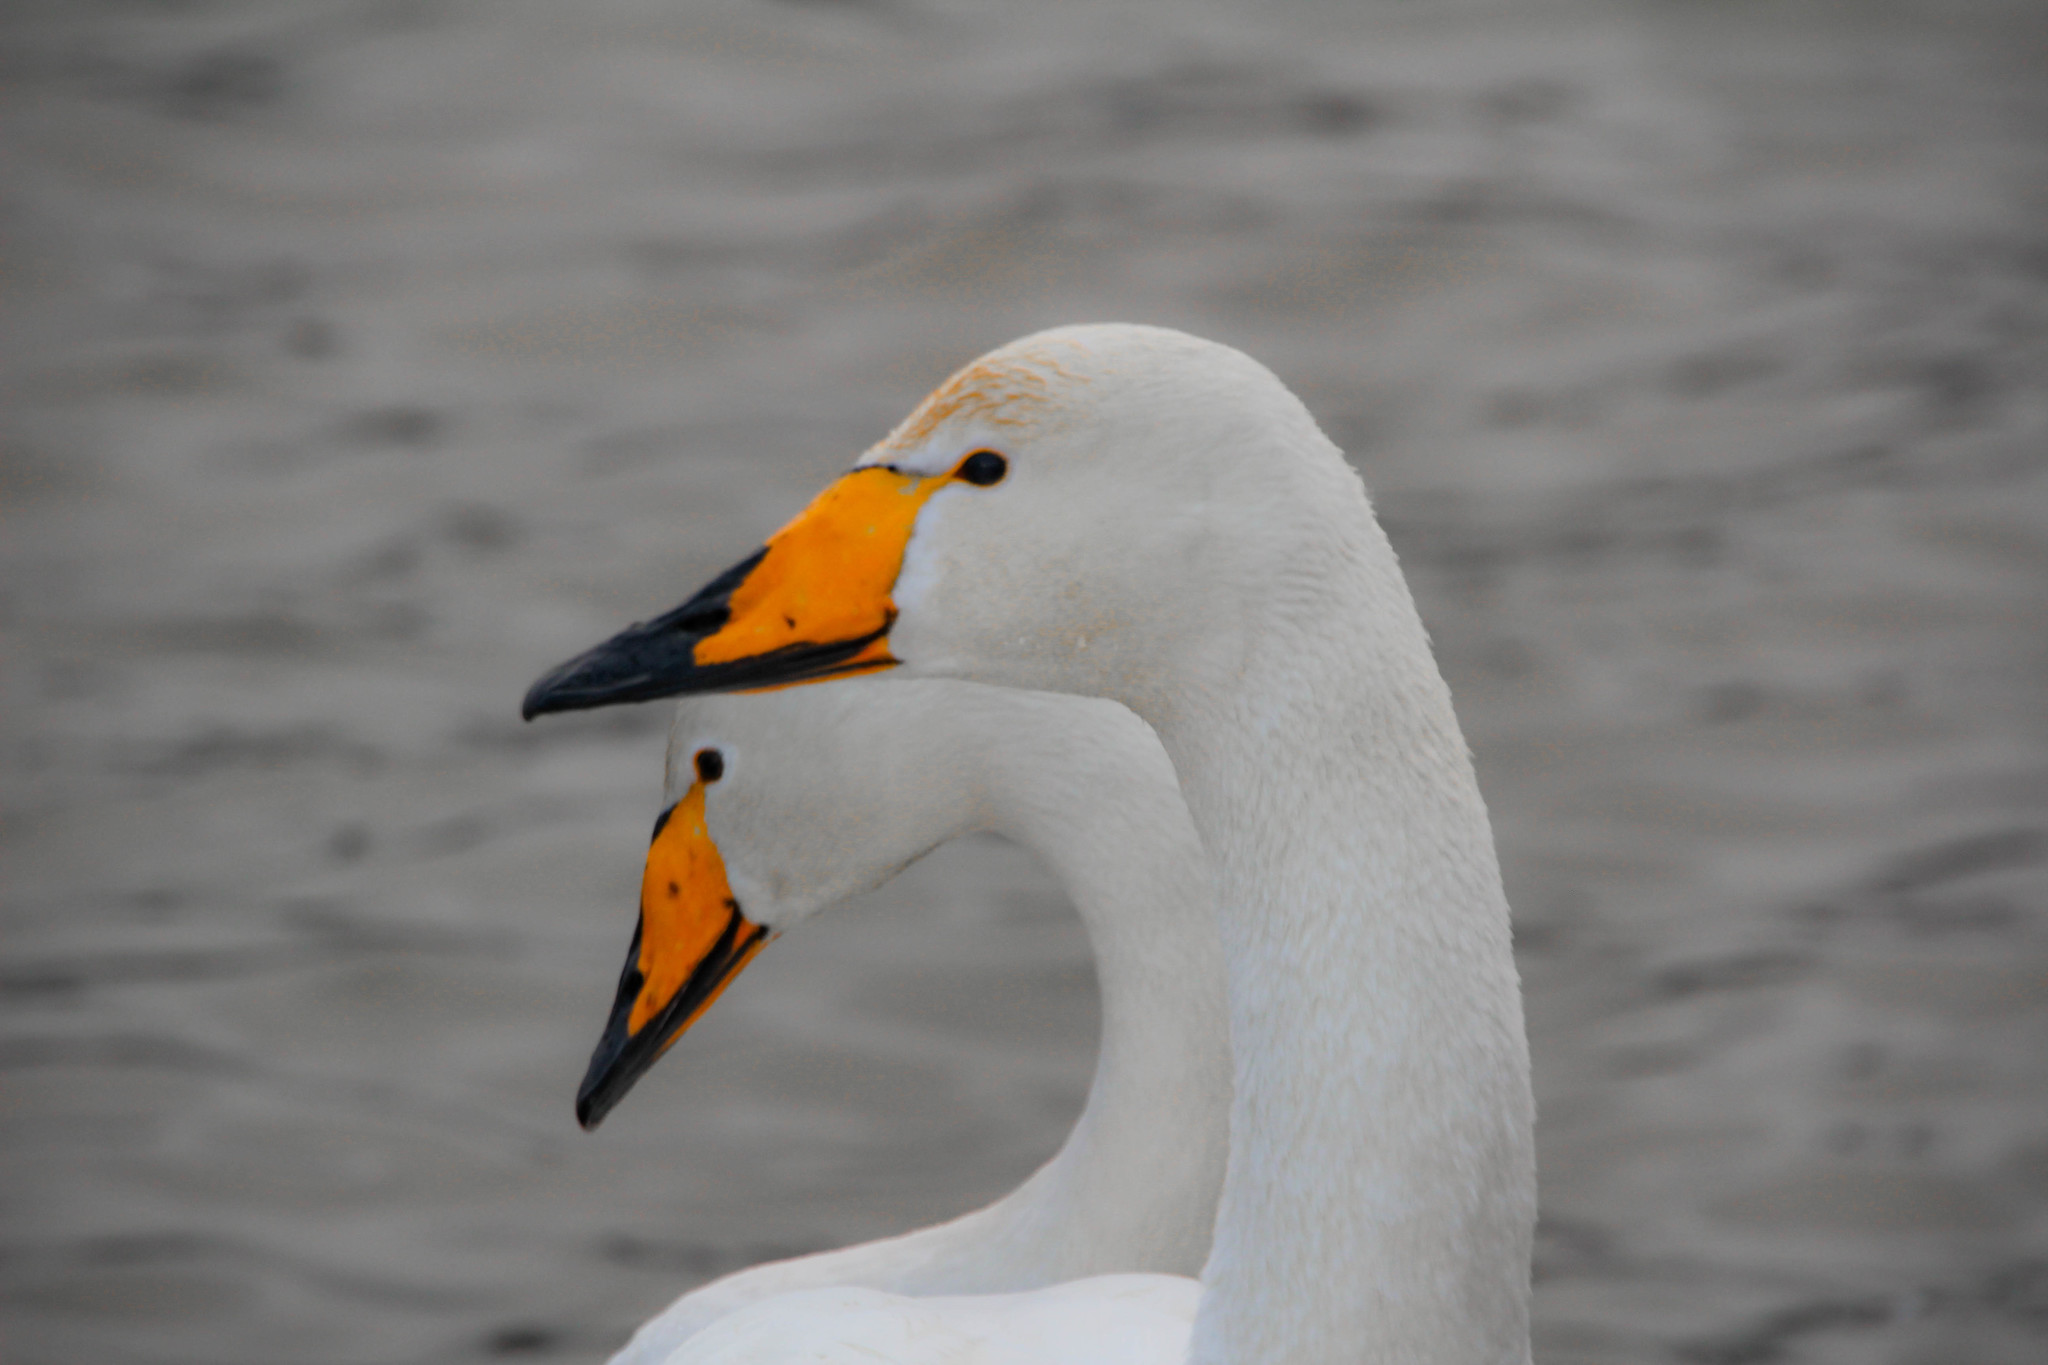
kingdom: Animalia
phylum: Chordata
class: Aves
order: Anseriformes
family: Anatidae
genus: Cygnus
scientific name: Cygnus cygnus
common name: Whooper swan
